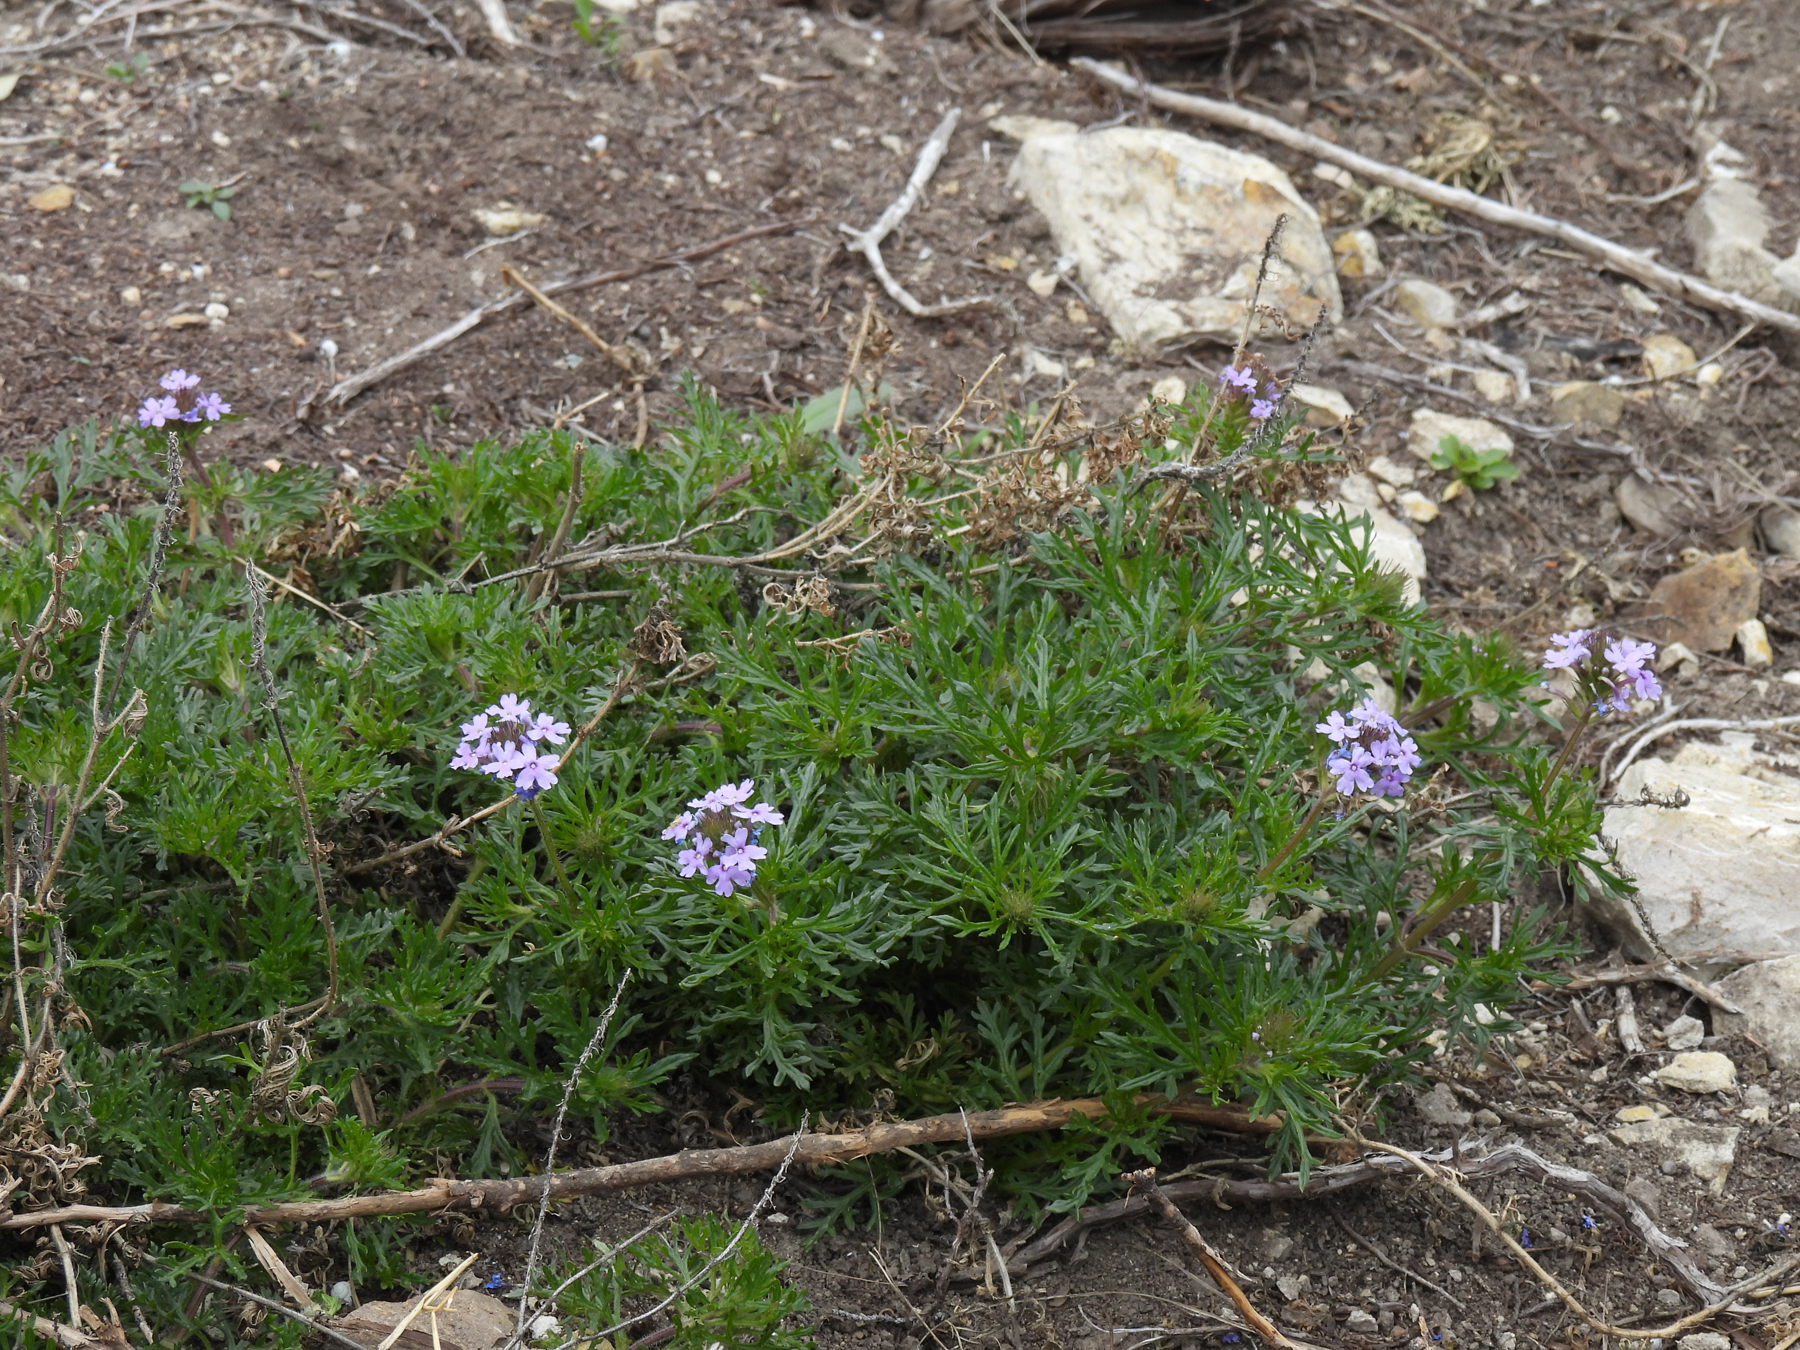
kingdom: Plantae
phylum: Tracheophyta
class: Magnoliopsida
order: Lamiales
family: Verbenaceae
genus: Verbena
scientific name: Verbena bipinnatifida
